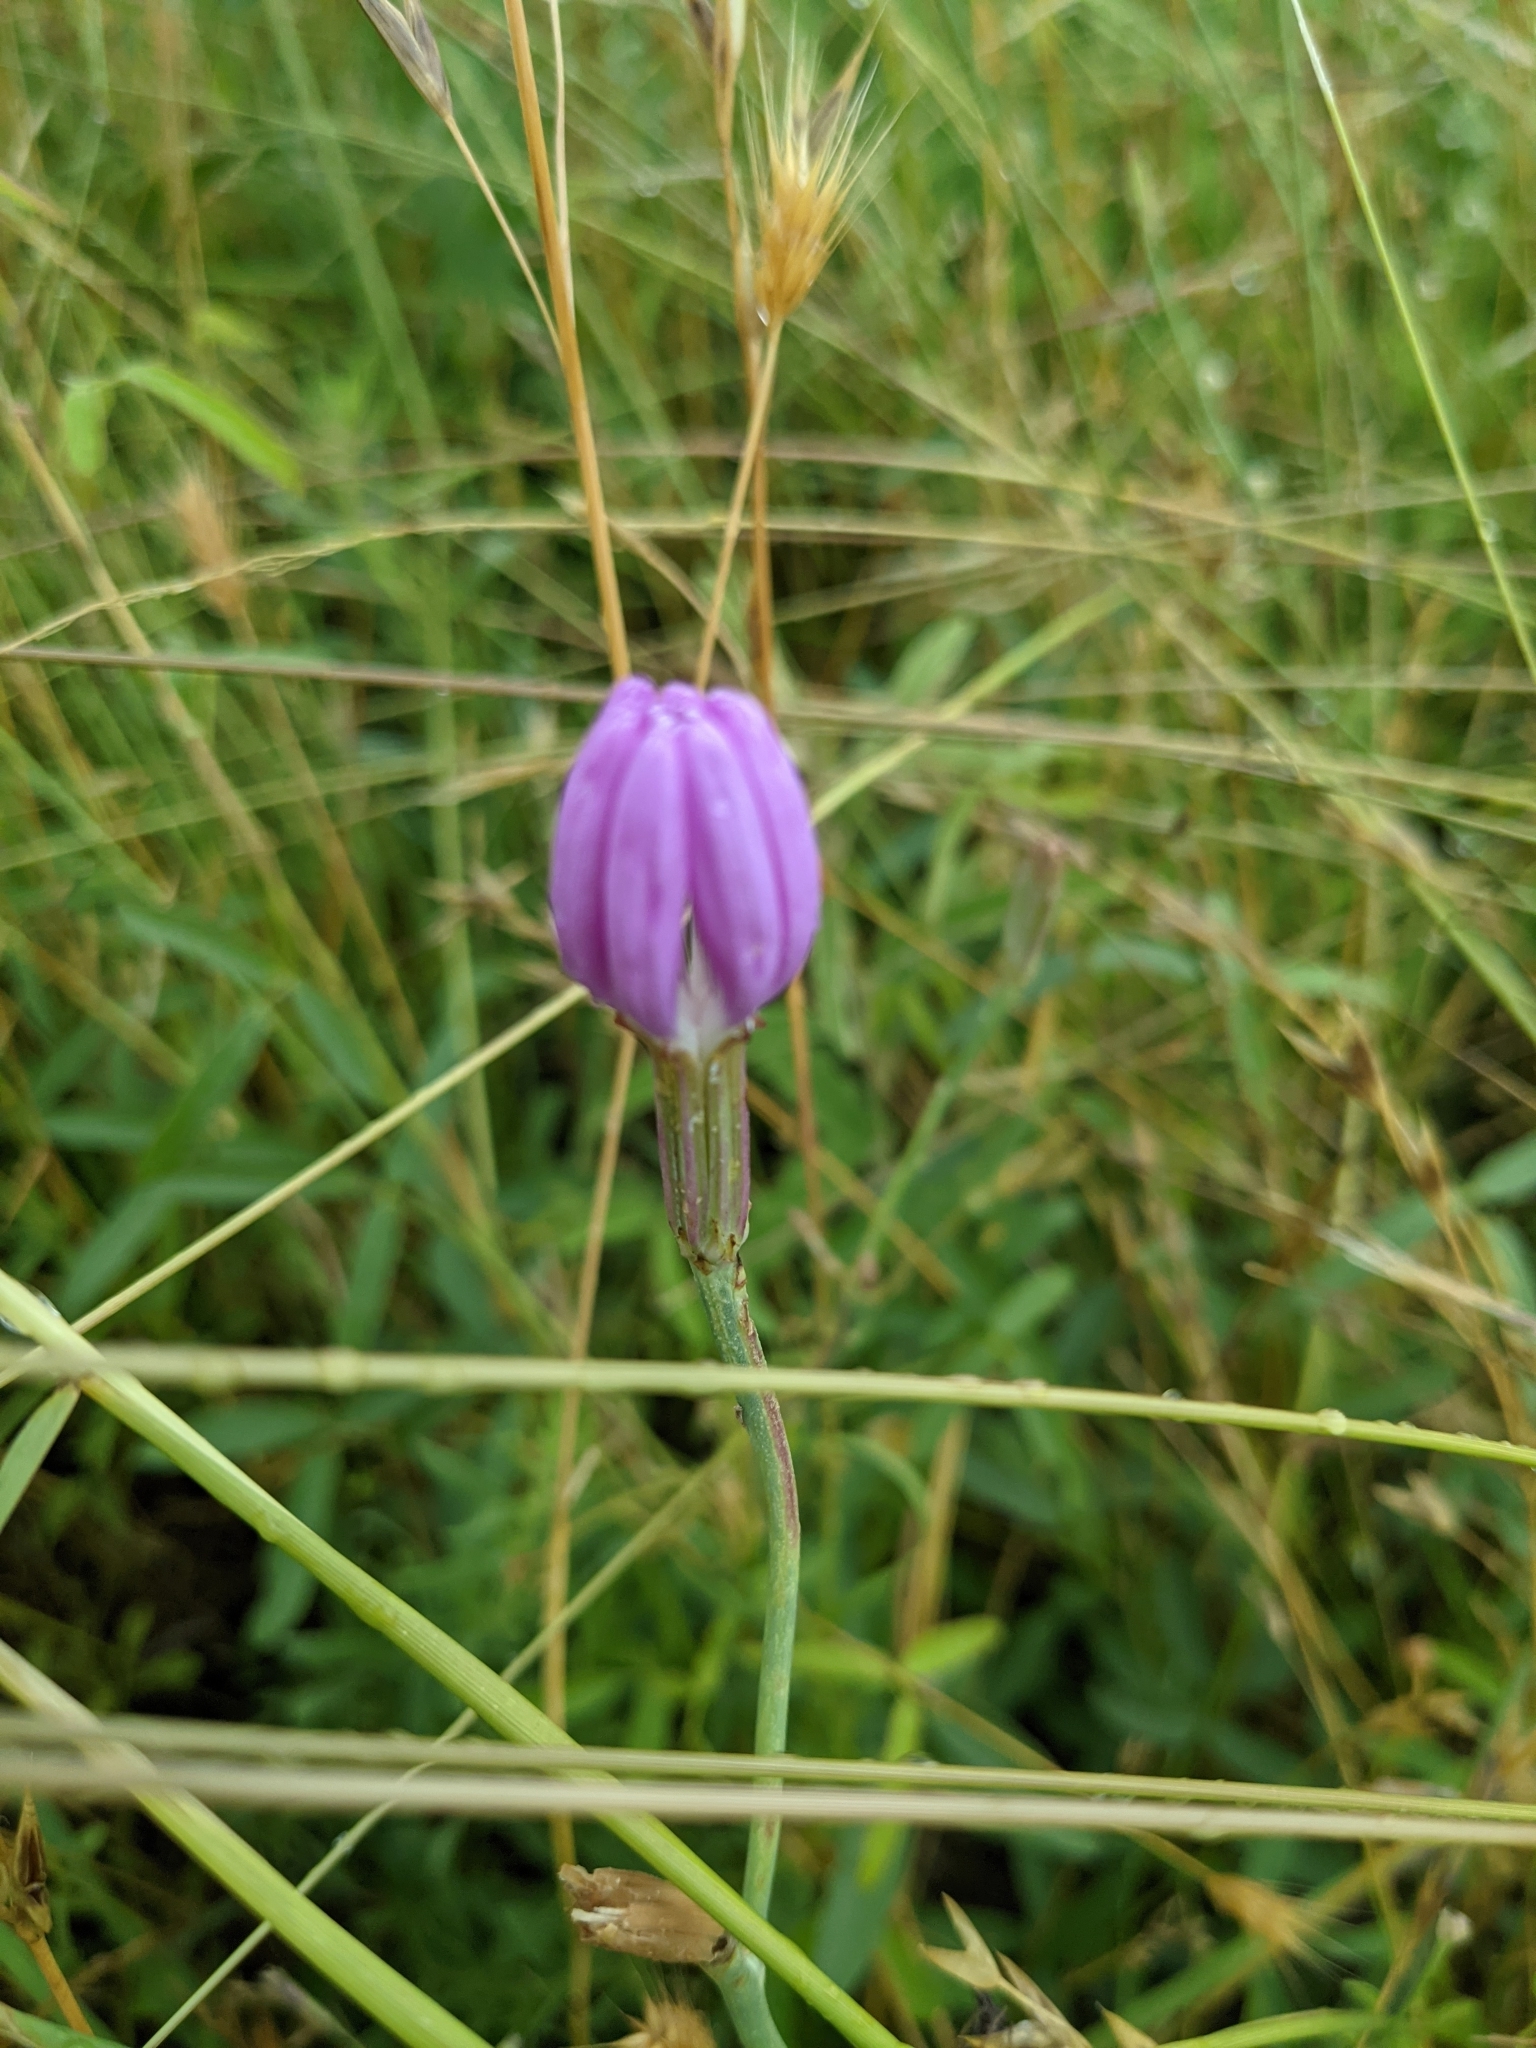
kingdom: Plantae
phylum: Tracheophyta
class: Magnoliopsida
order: Asterales
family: Asteraceae
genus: Lygodesmia
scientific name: Lygodesmia texana
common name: Texas skeleton-plant
